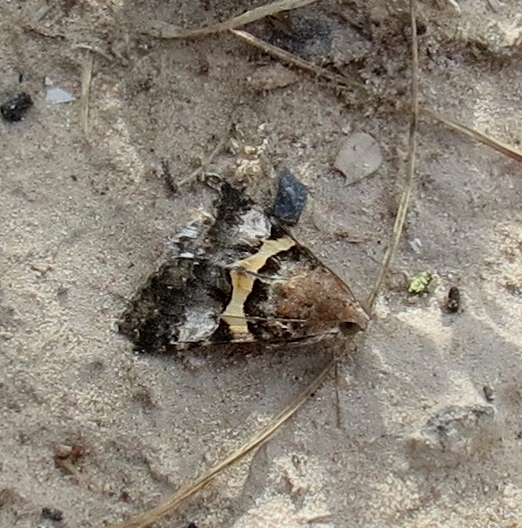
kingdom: Animalia
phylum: Arthropoda
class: Insecta
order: Lepidoptera
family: Erebidae
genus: Melipotis
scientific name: Melipotis jucunda
